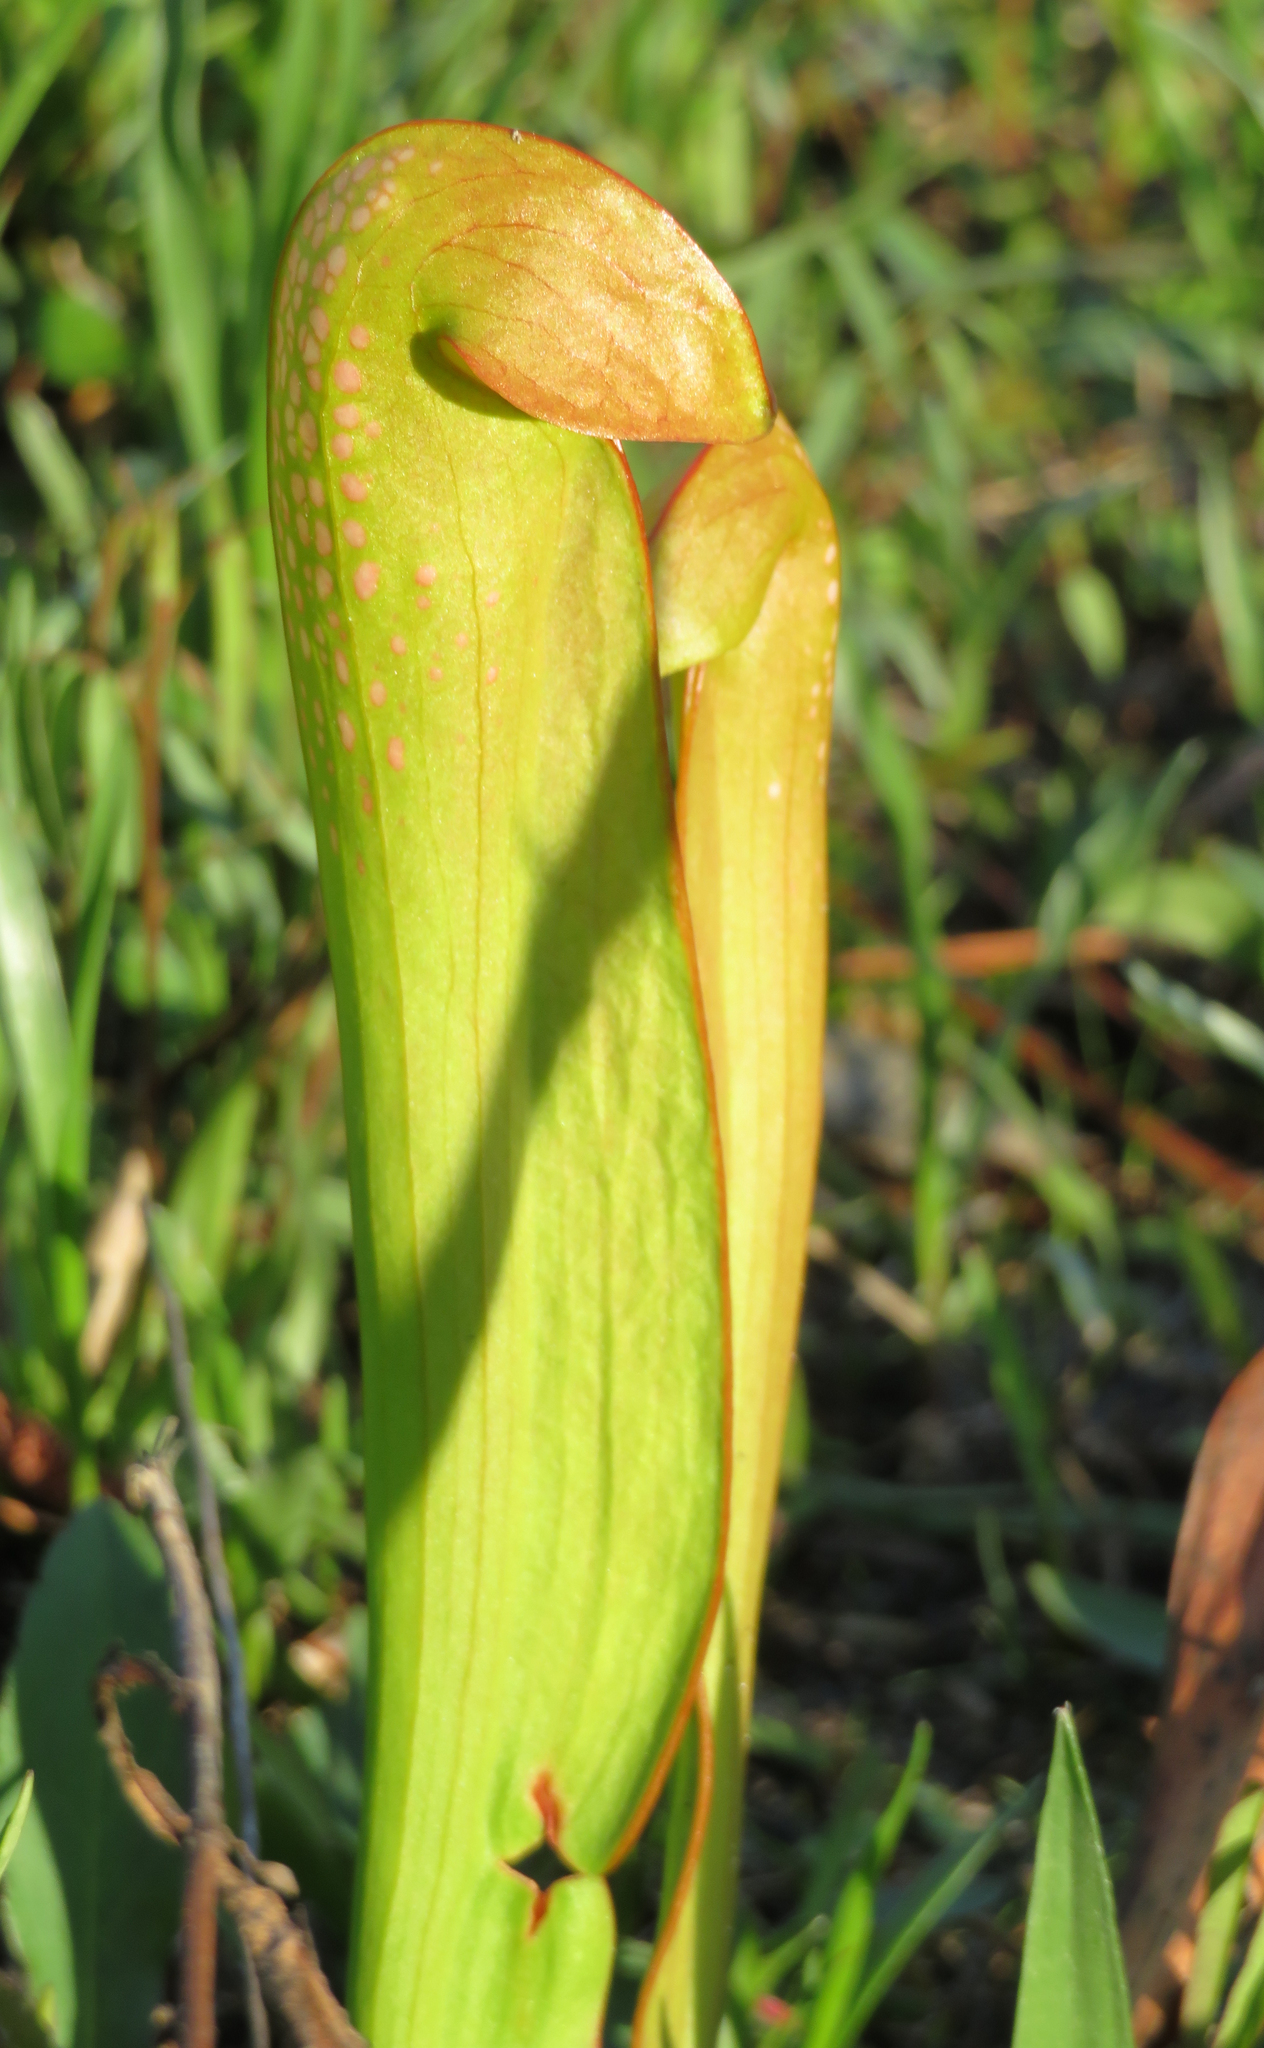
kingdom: Plantae
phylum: Tracheophyta
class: Magnoliopsida
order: Ericales
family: Sarraceniaceae
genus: Sarracenia
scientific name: Sarracenia minor
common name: Rainhat-trumpet
